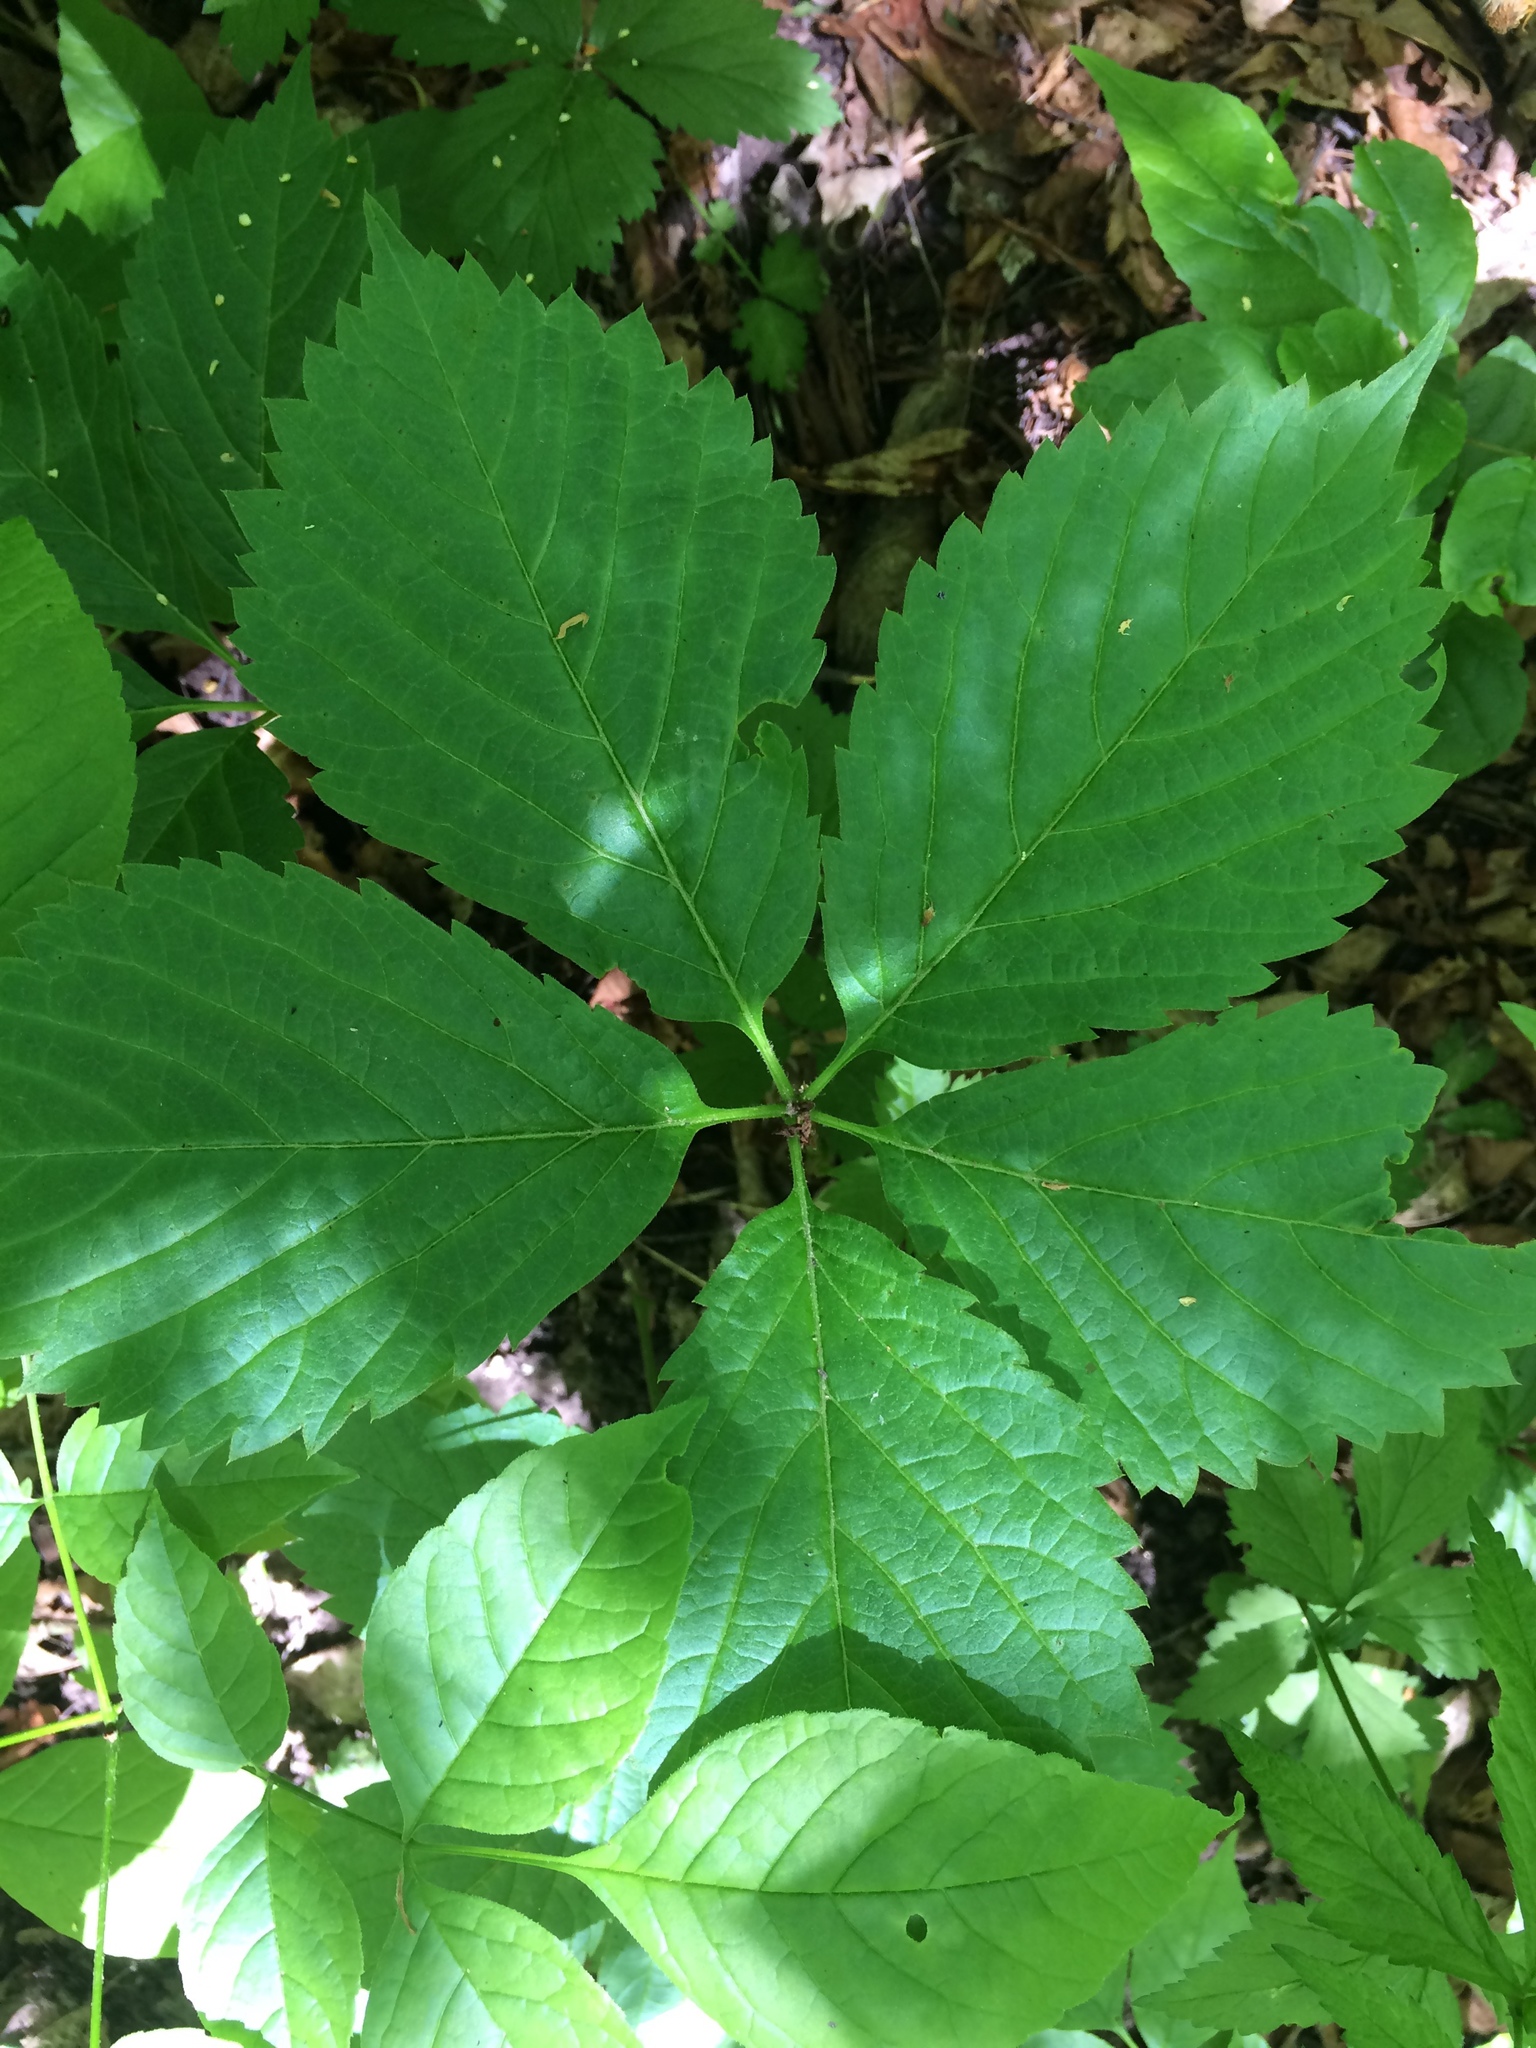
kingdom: Plantae
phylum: Tracheophyta
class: Magnoliopsida
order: Vitales
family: Vitaceae
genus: Parthenocissus
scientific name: Parthenocissus quinquefolia
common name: Virginia-creeper
